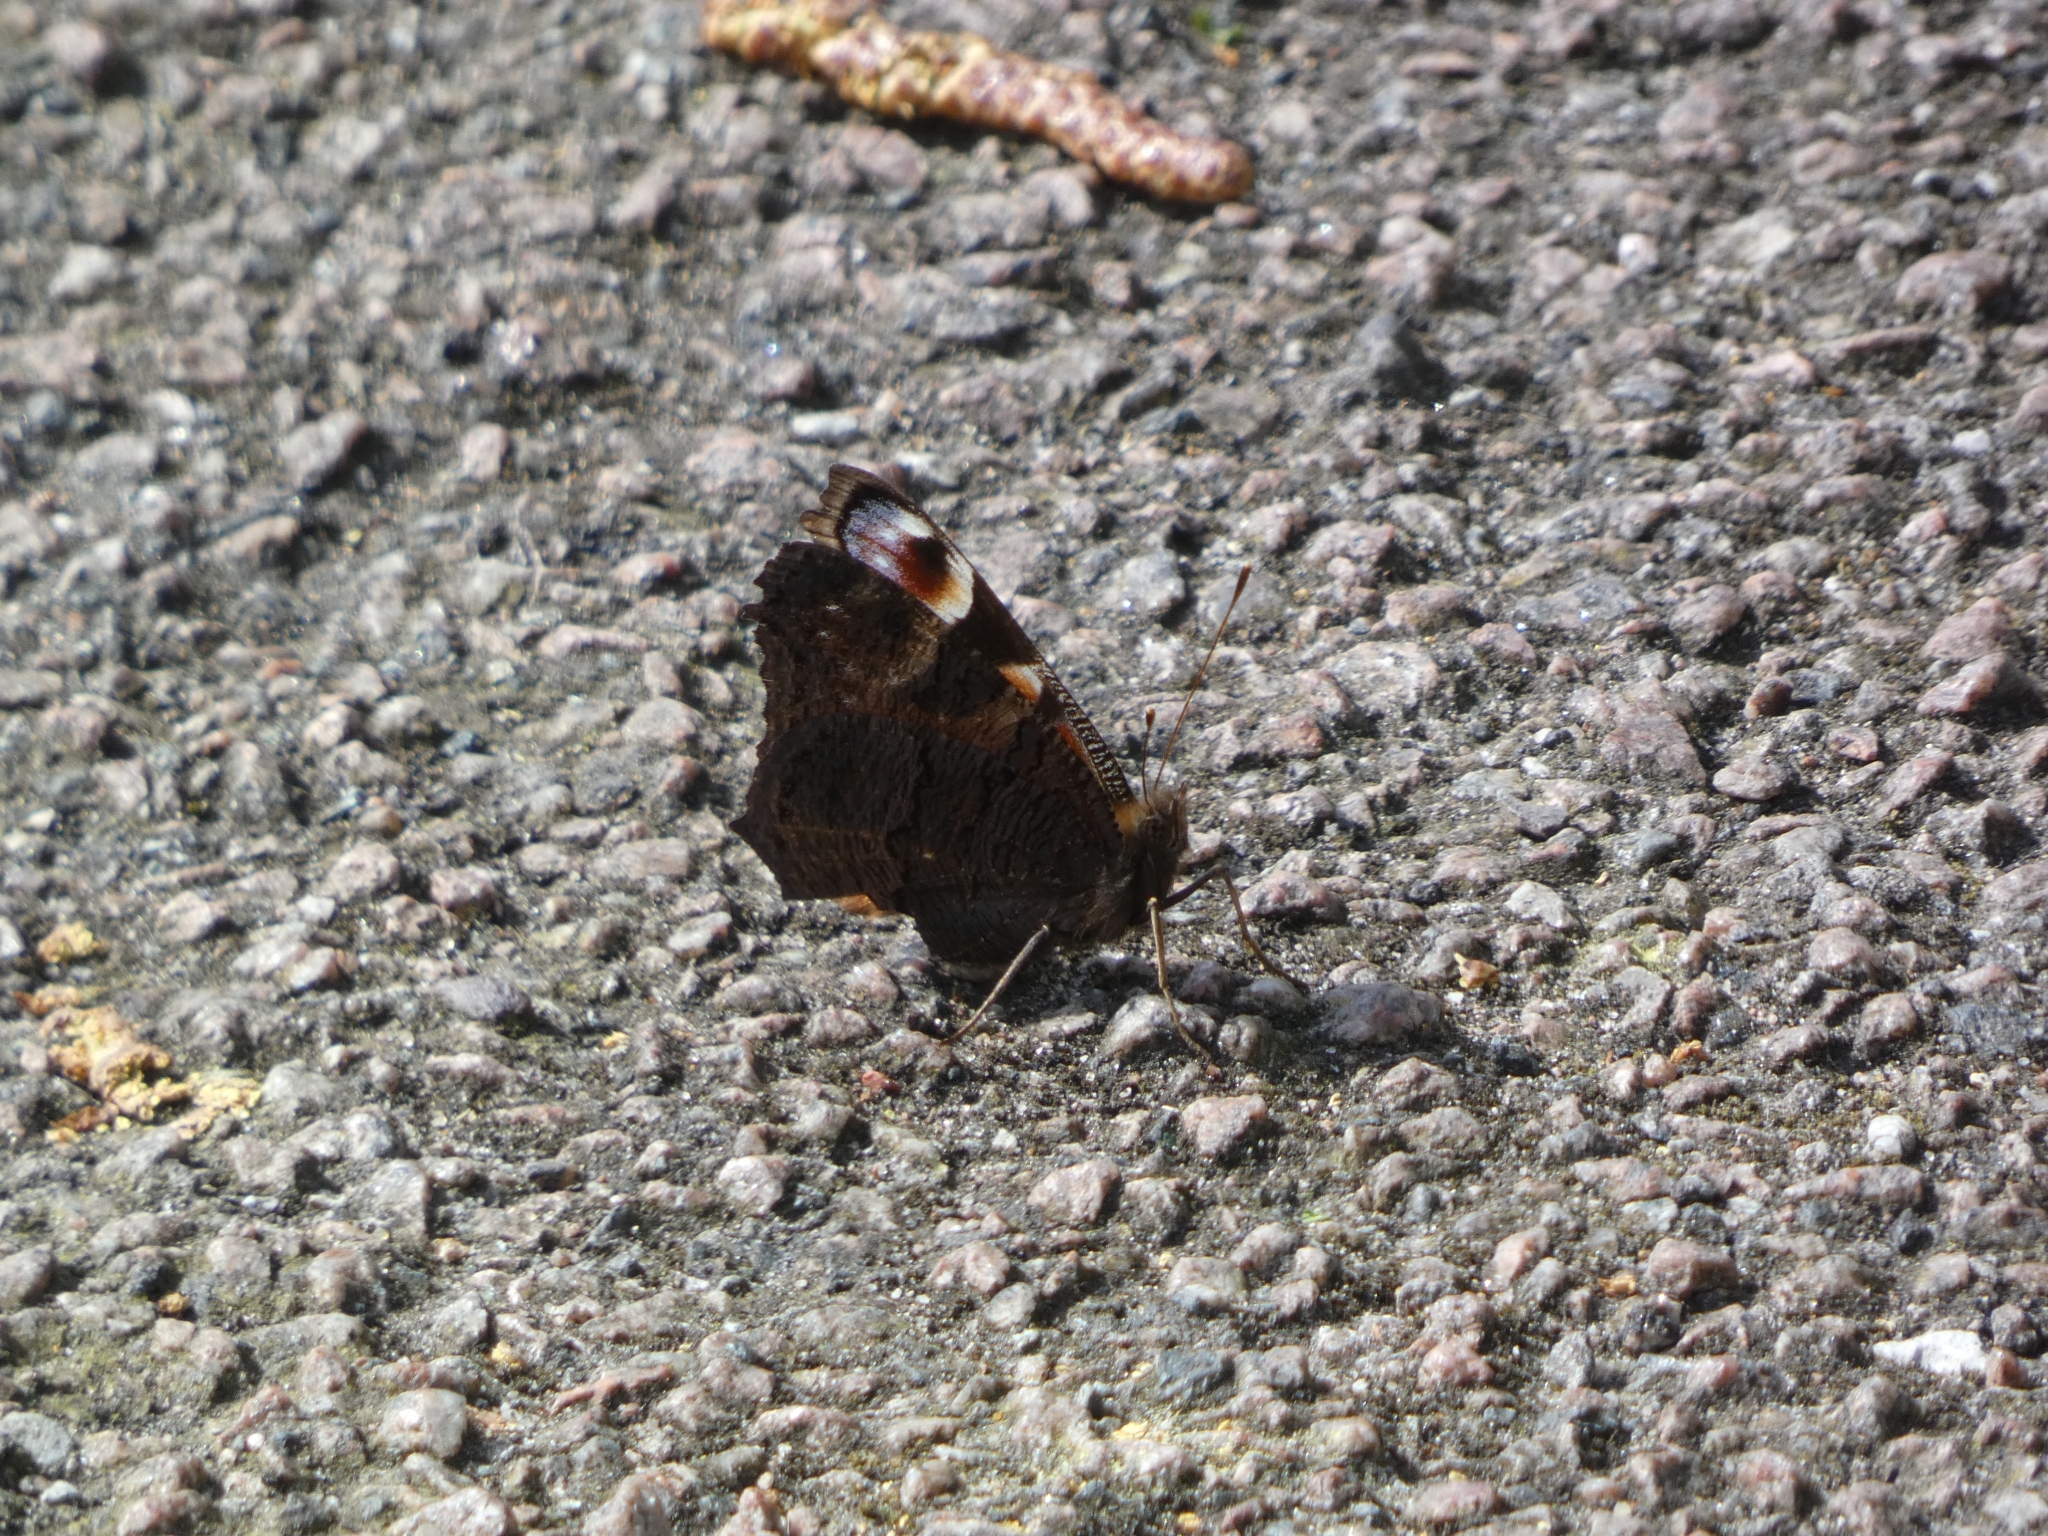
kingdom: Animalia
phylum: Arthropoda
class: Insecta
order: Lepidoptera
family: Nymphalidae
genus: Aglais
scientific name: Aglais io
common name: Peacock
